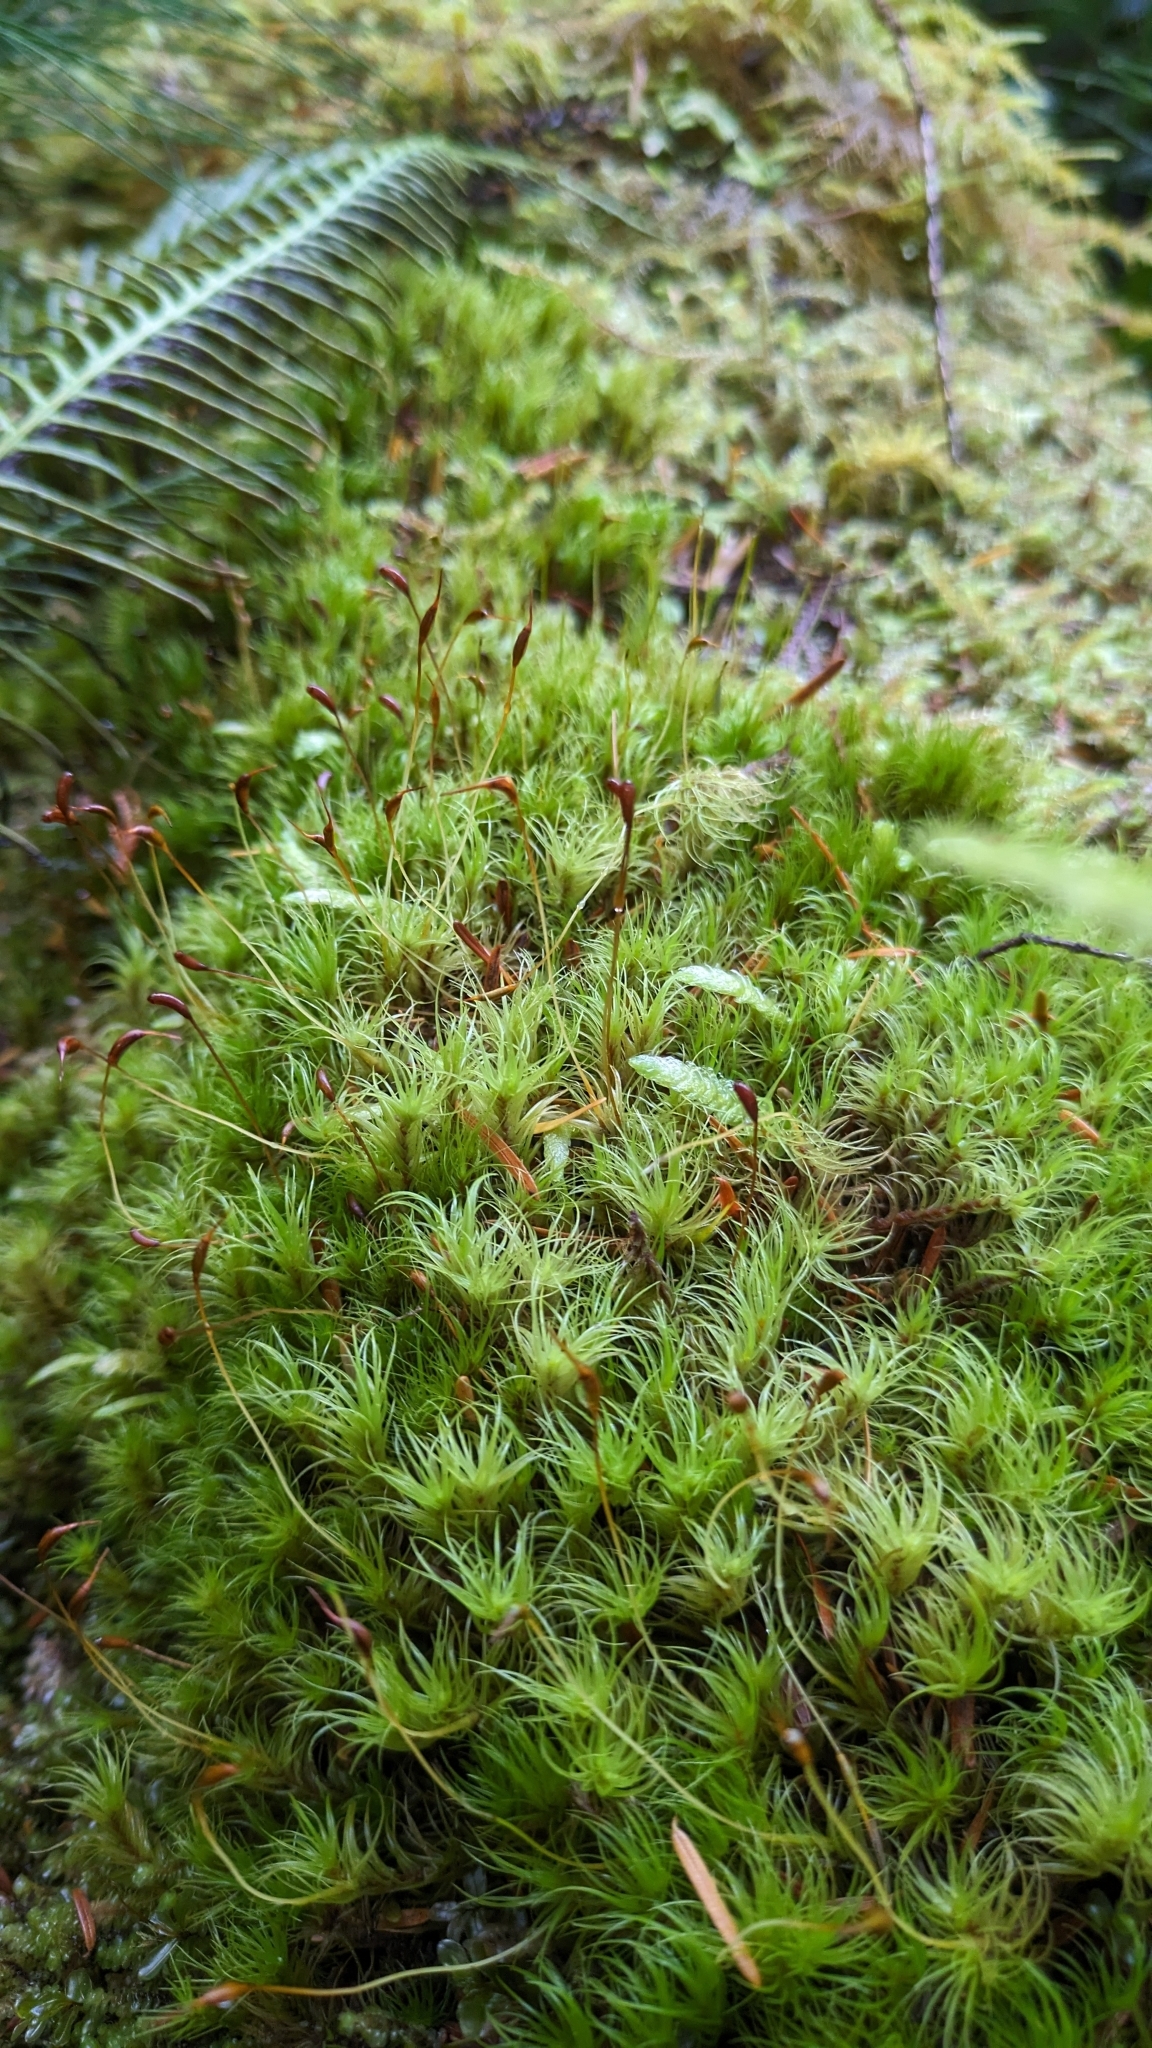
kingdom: Plantae
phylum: Bryophyta
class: Bryopsida
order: Dicranales
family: Dicranaceae
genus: Dicranum
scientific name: Dicranum fuscescens
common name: Curly heron's-bill moss
